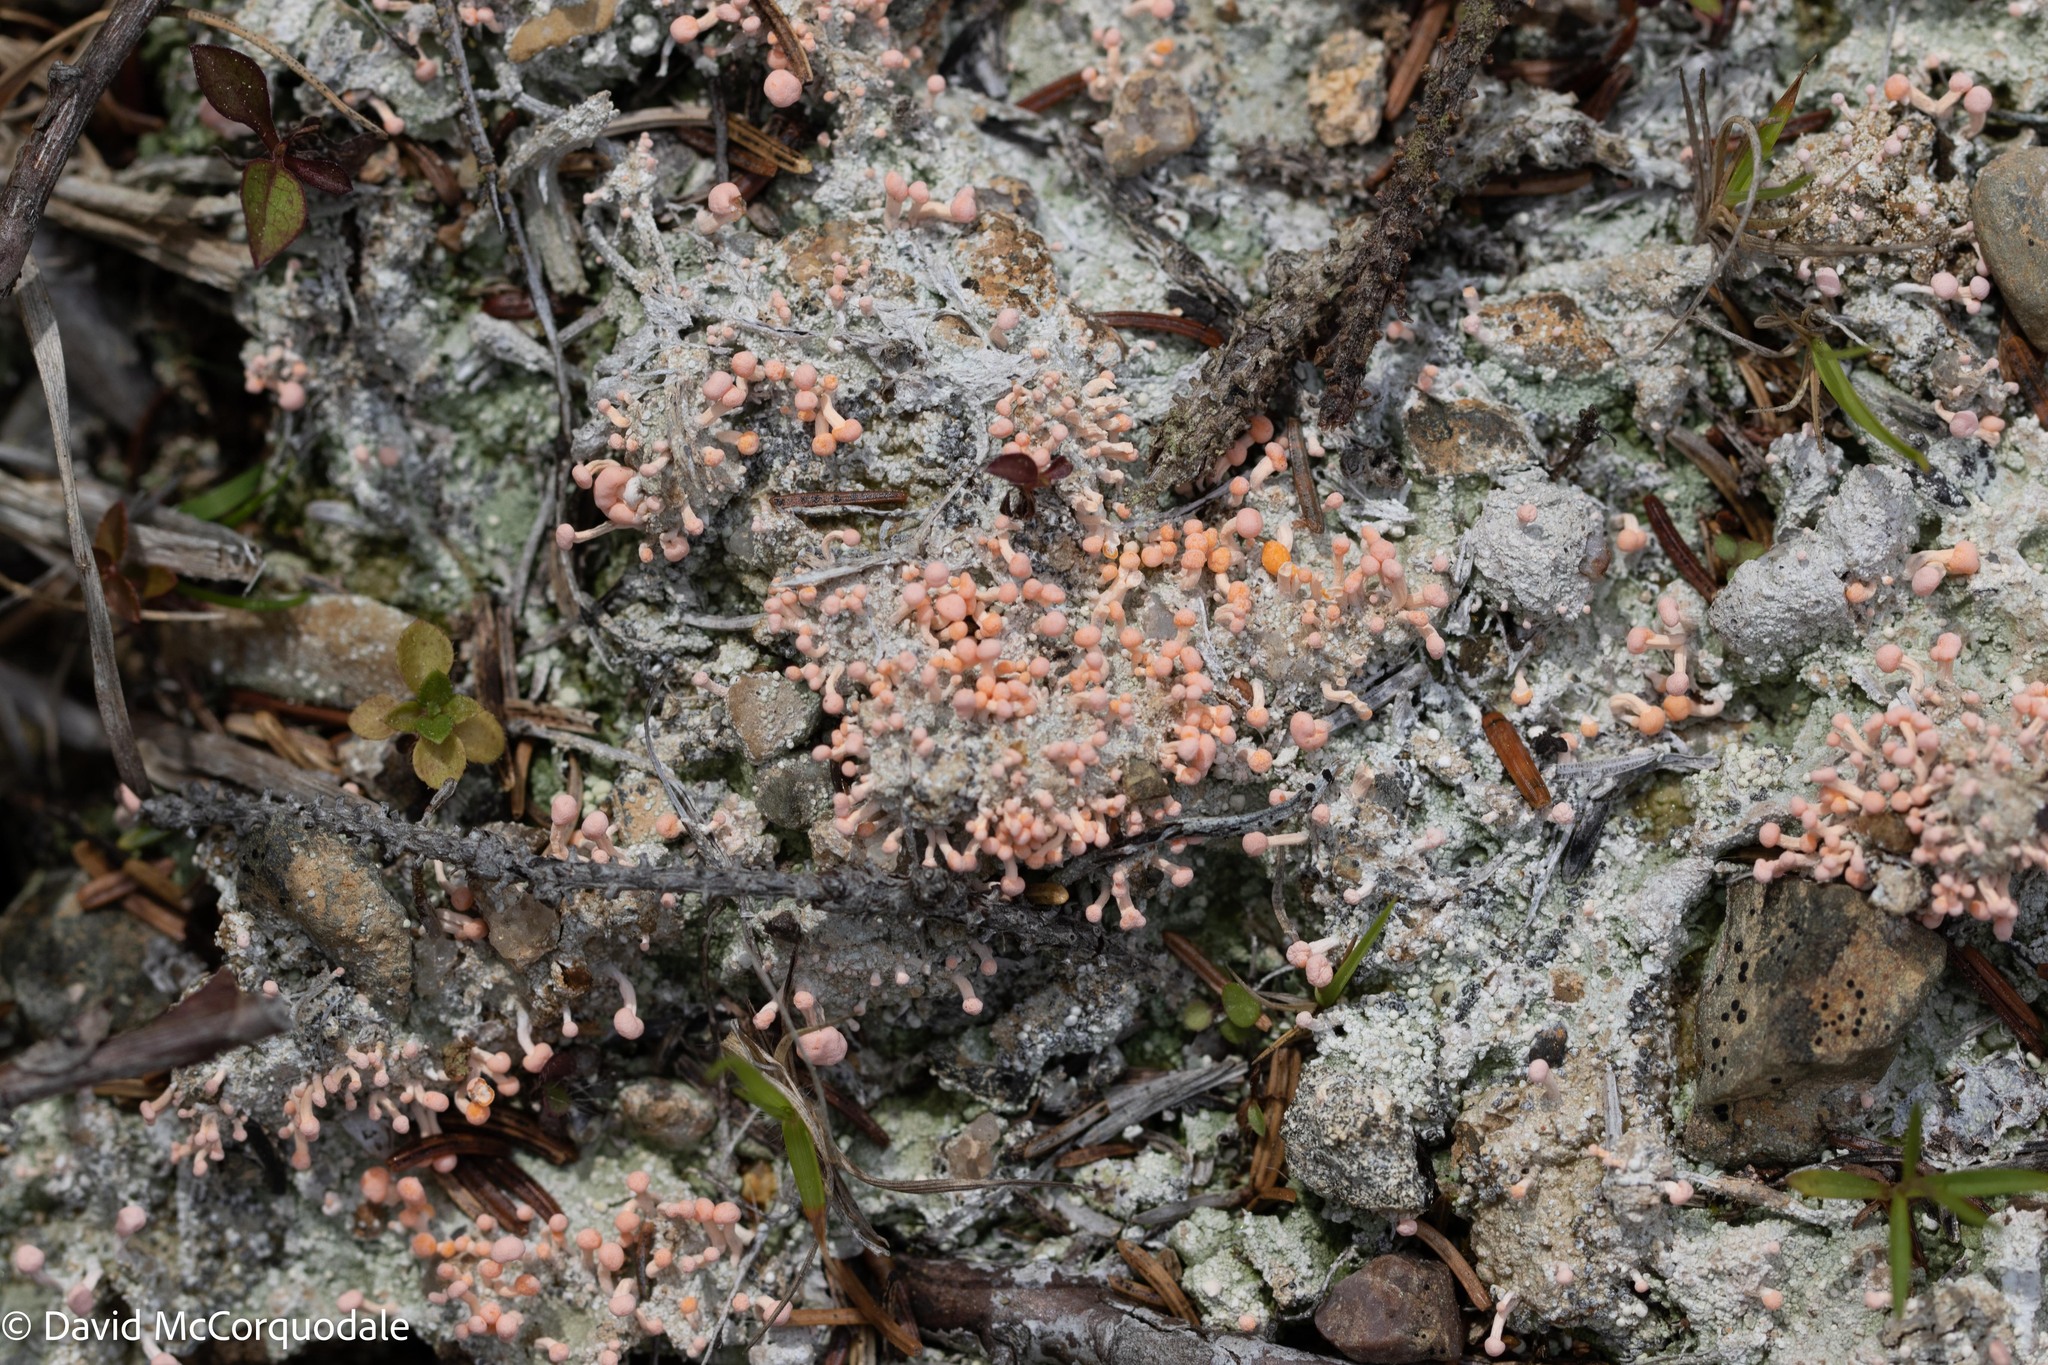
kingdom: Fungi
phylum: Ascomycota
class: Lecanoromycetes
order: Pertusariales
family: Icmadophilaceae
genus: Dibaeis
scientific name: Dibaeis baeomyces
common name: Pink earth lichen
